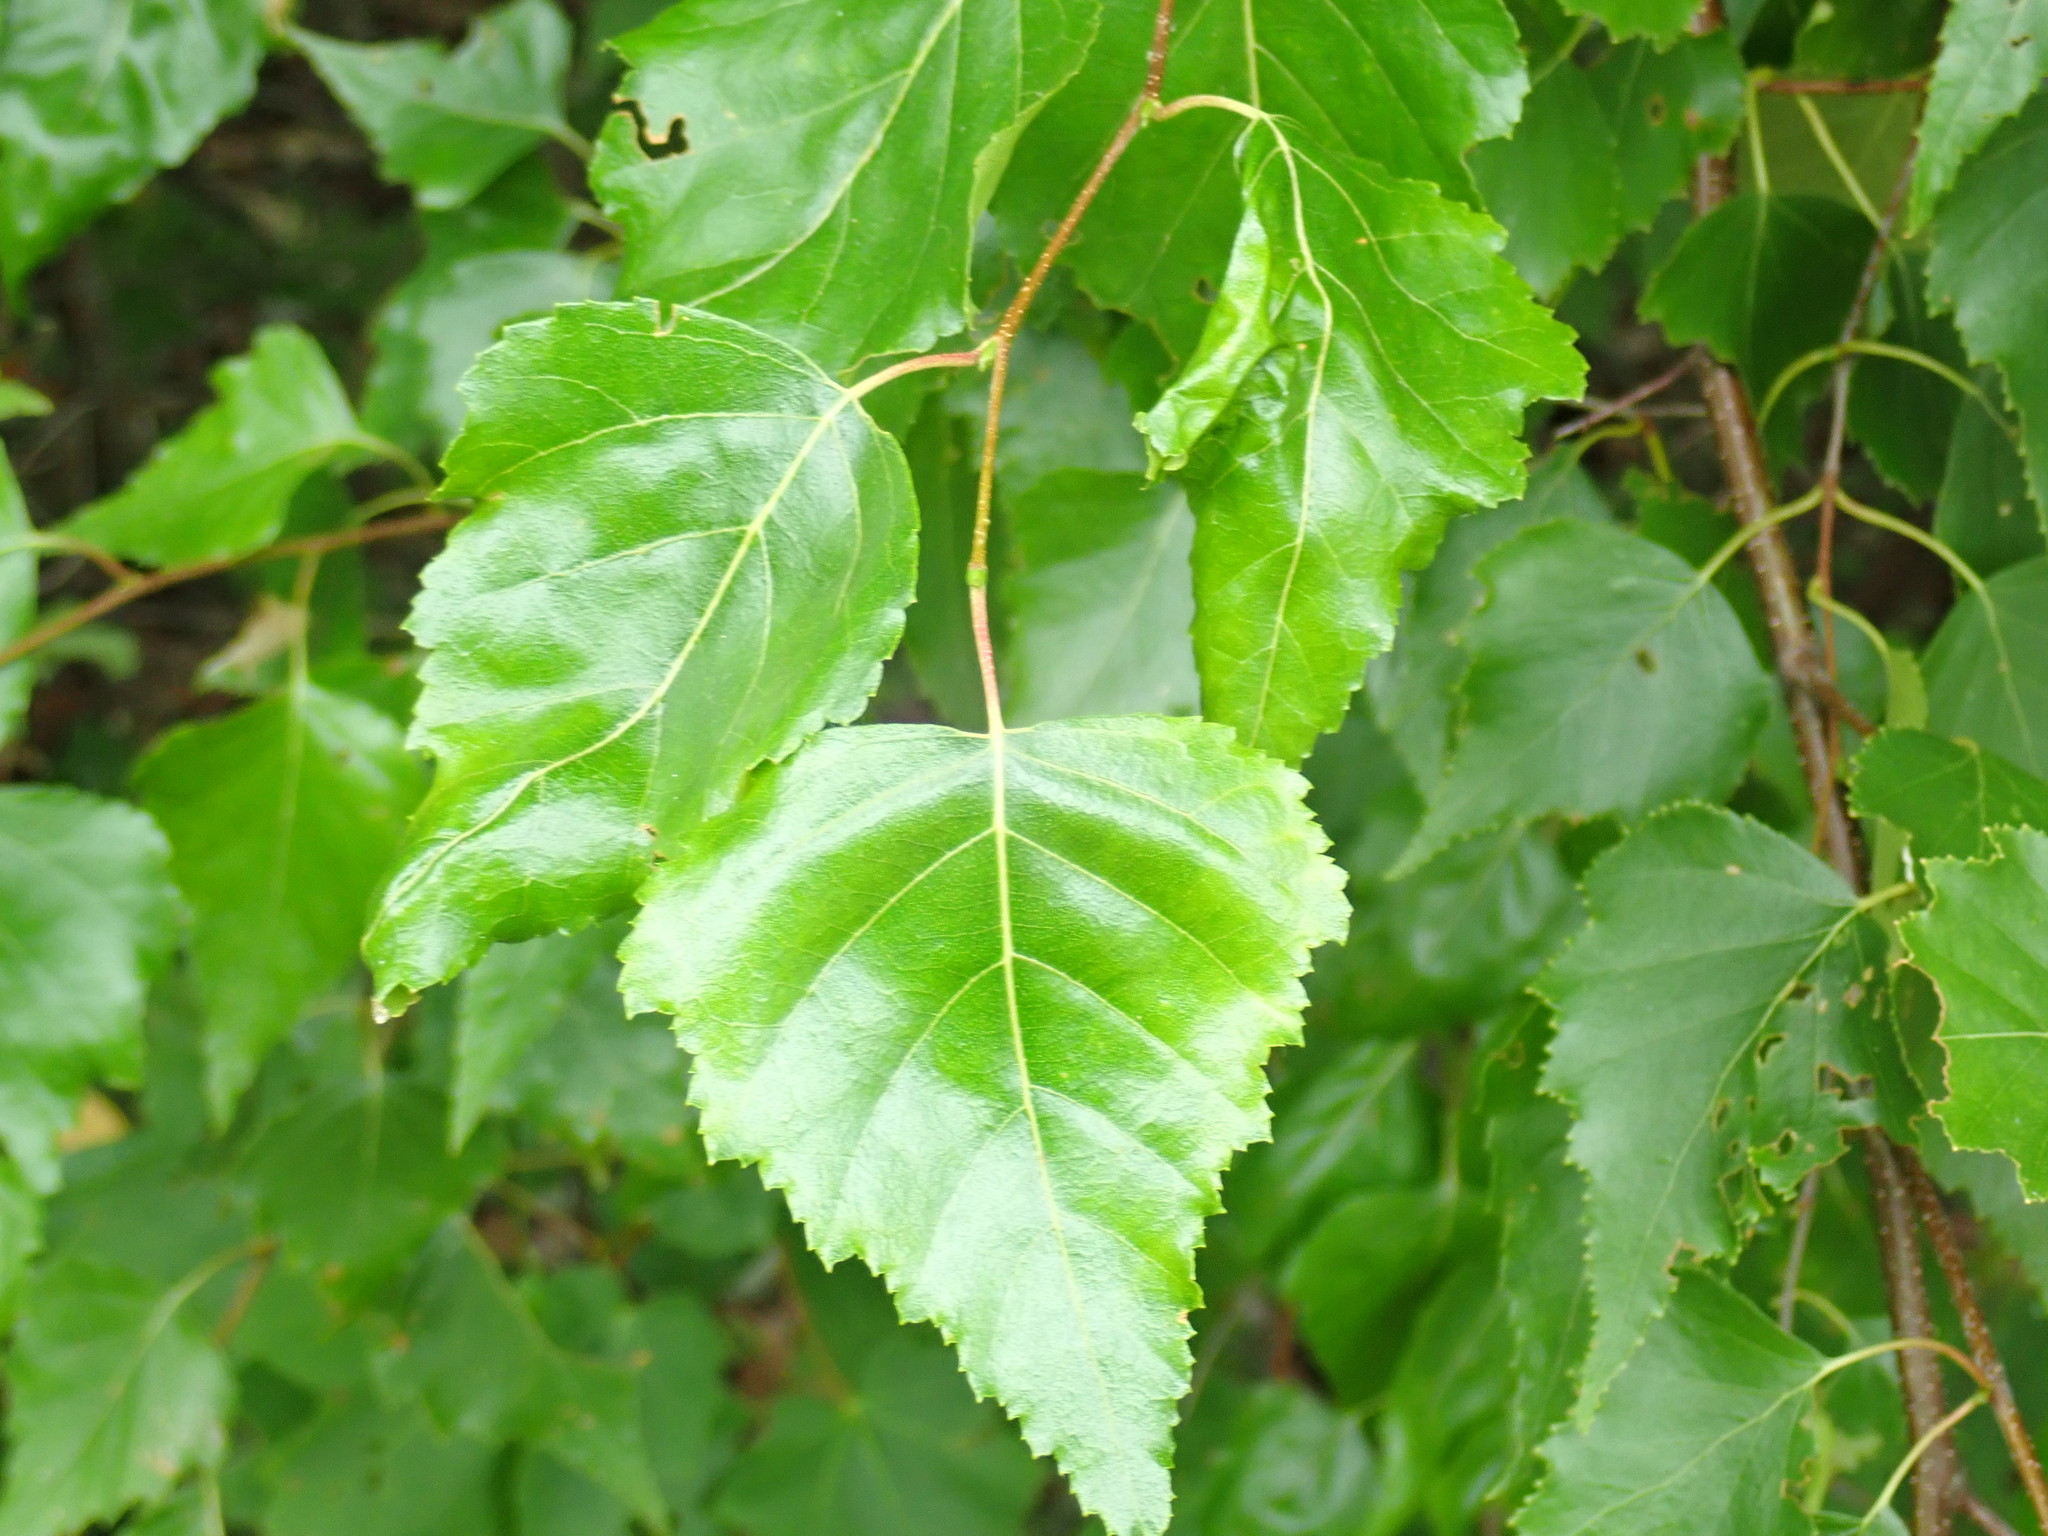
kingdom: Plantae
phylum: Tracheophyta
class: Magnoliopsida
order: Fagales
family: Betulaceae
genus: Betula
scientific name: Betula populifolia
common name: Fire birch
